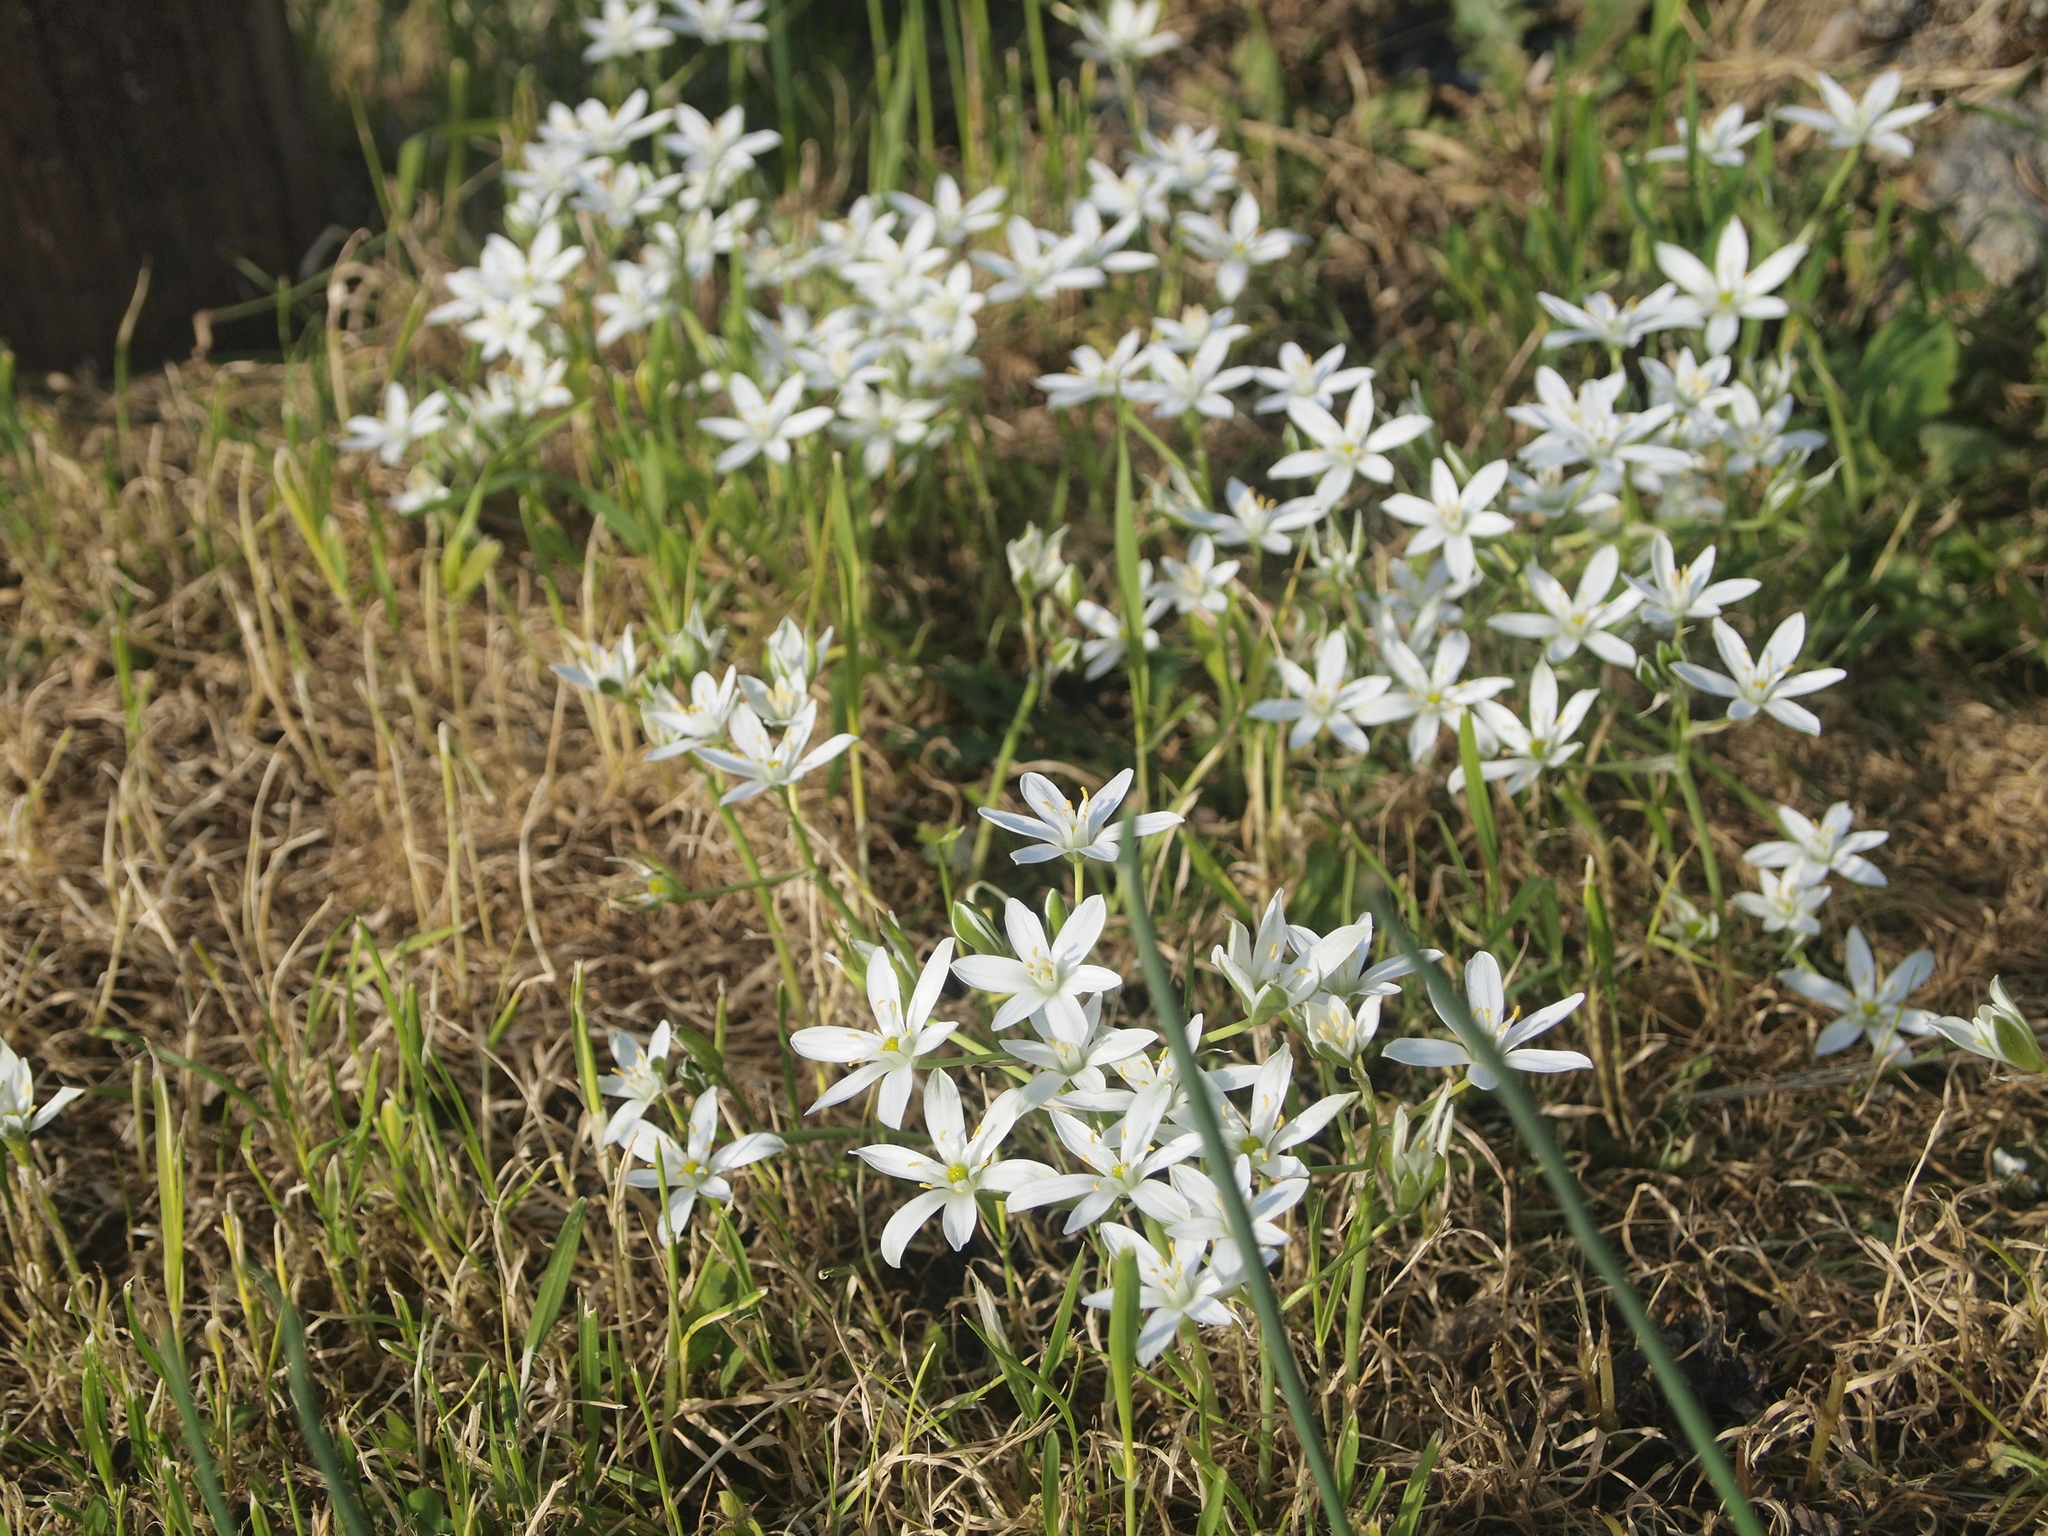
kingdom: Plantae
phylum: Tracheophyta
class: Liliopsida
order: Asparagales
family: Asparagaceae
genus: Ornithogalum
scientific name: Ornithogalum umbellatum
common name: Garden star-of-bethlehem
